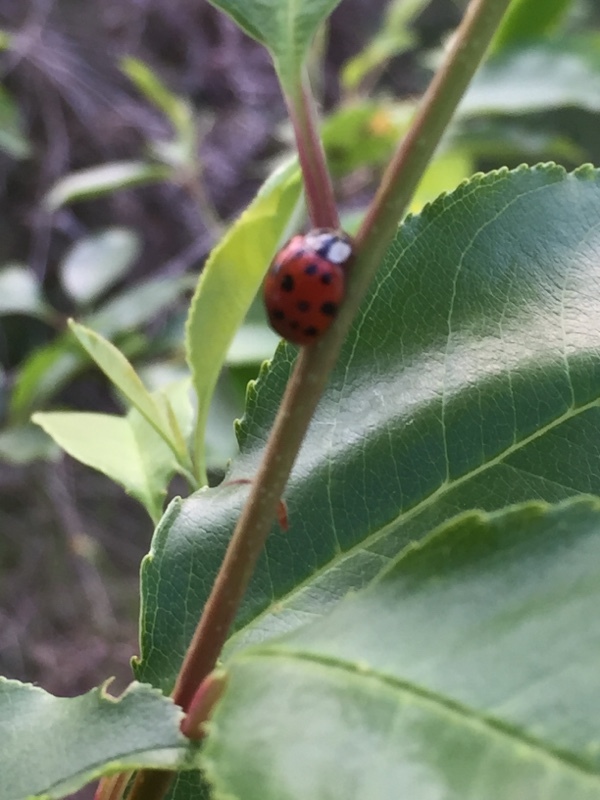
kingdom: Animalia
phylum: Arthropoda
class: Insecta
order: Coleoptera
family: Coccinellidae
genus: Harmonia
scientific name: Harmonia axyridis
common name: Harlequin ladybird
